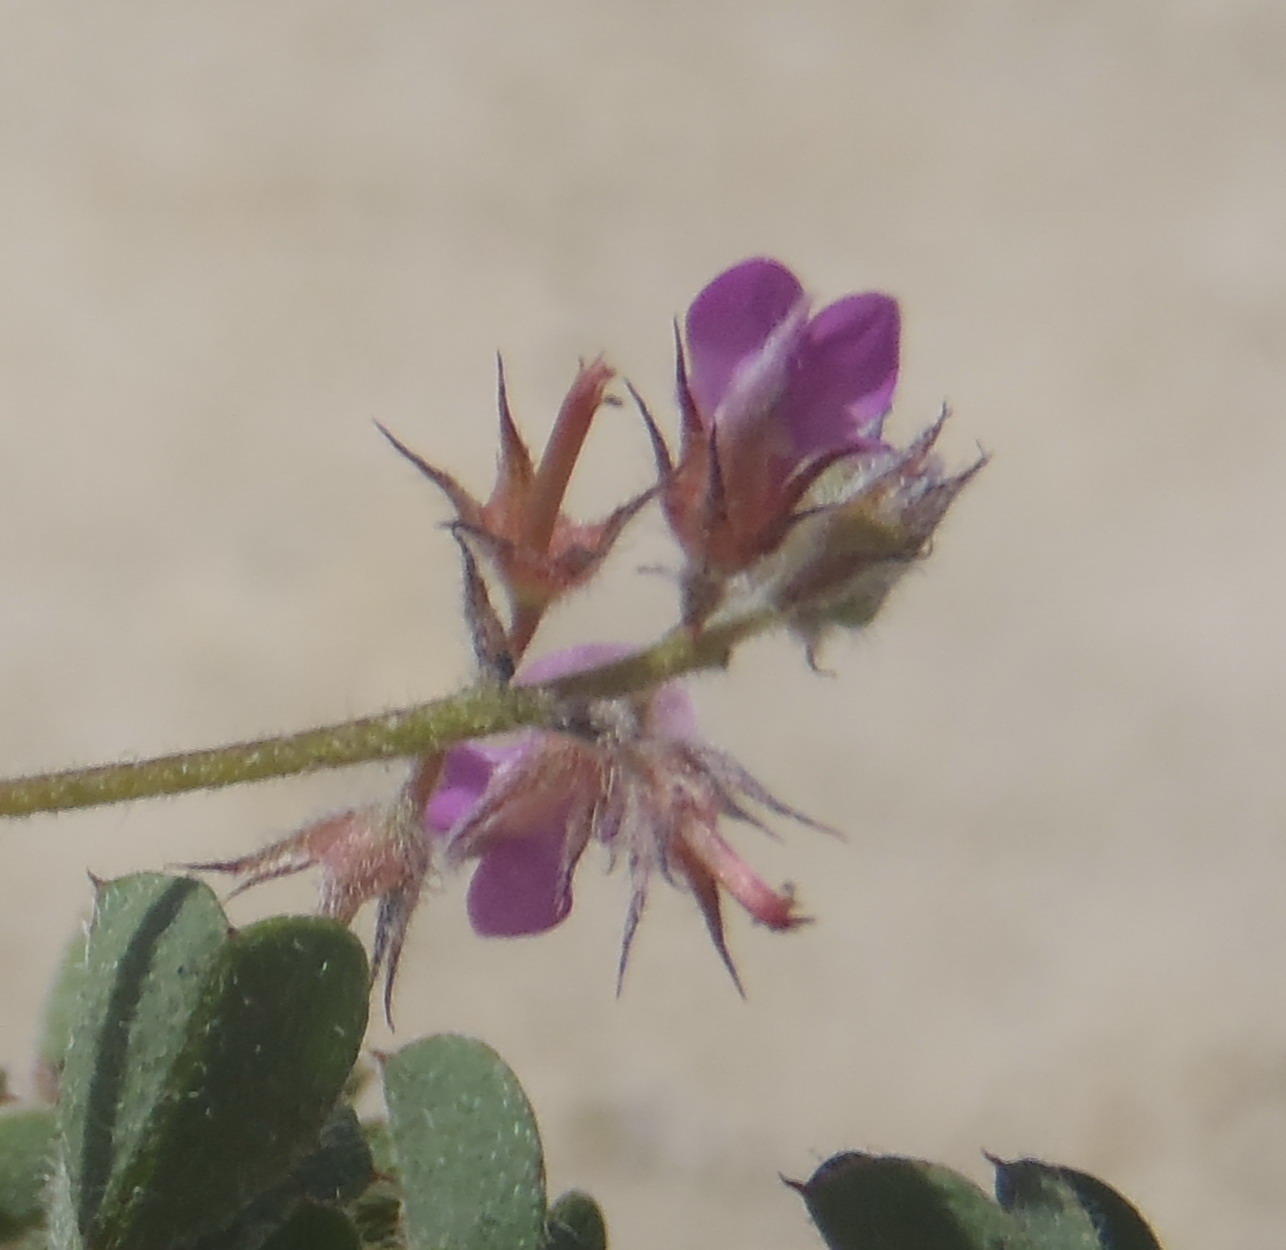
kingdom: Plantae
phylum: Tracheophyta
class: Magnoliopsida
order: Fabales
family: Fabaceae
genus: Indigofera
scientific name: Indigofera alopecuroides
